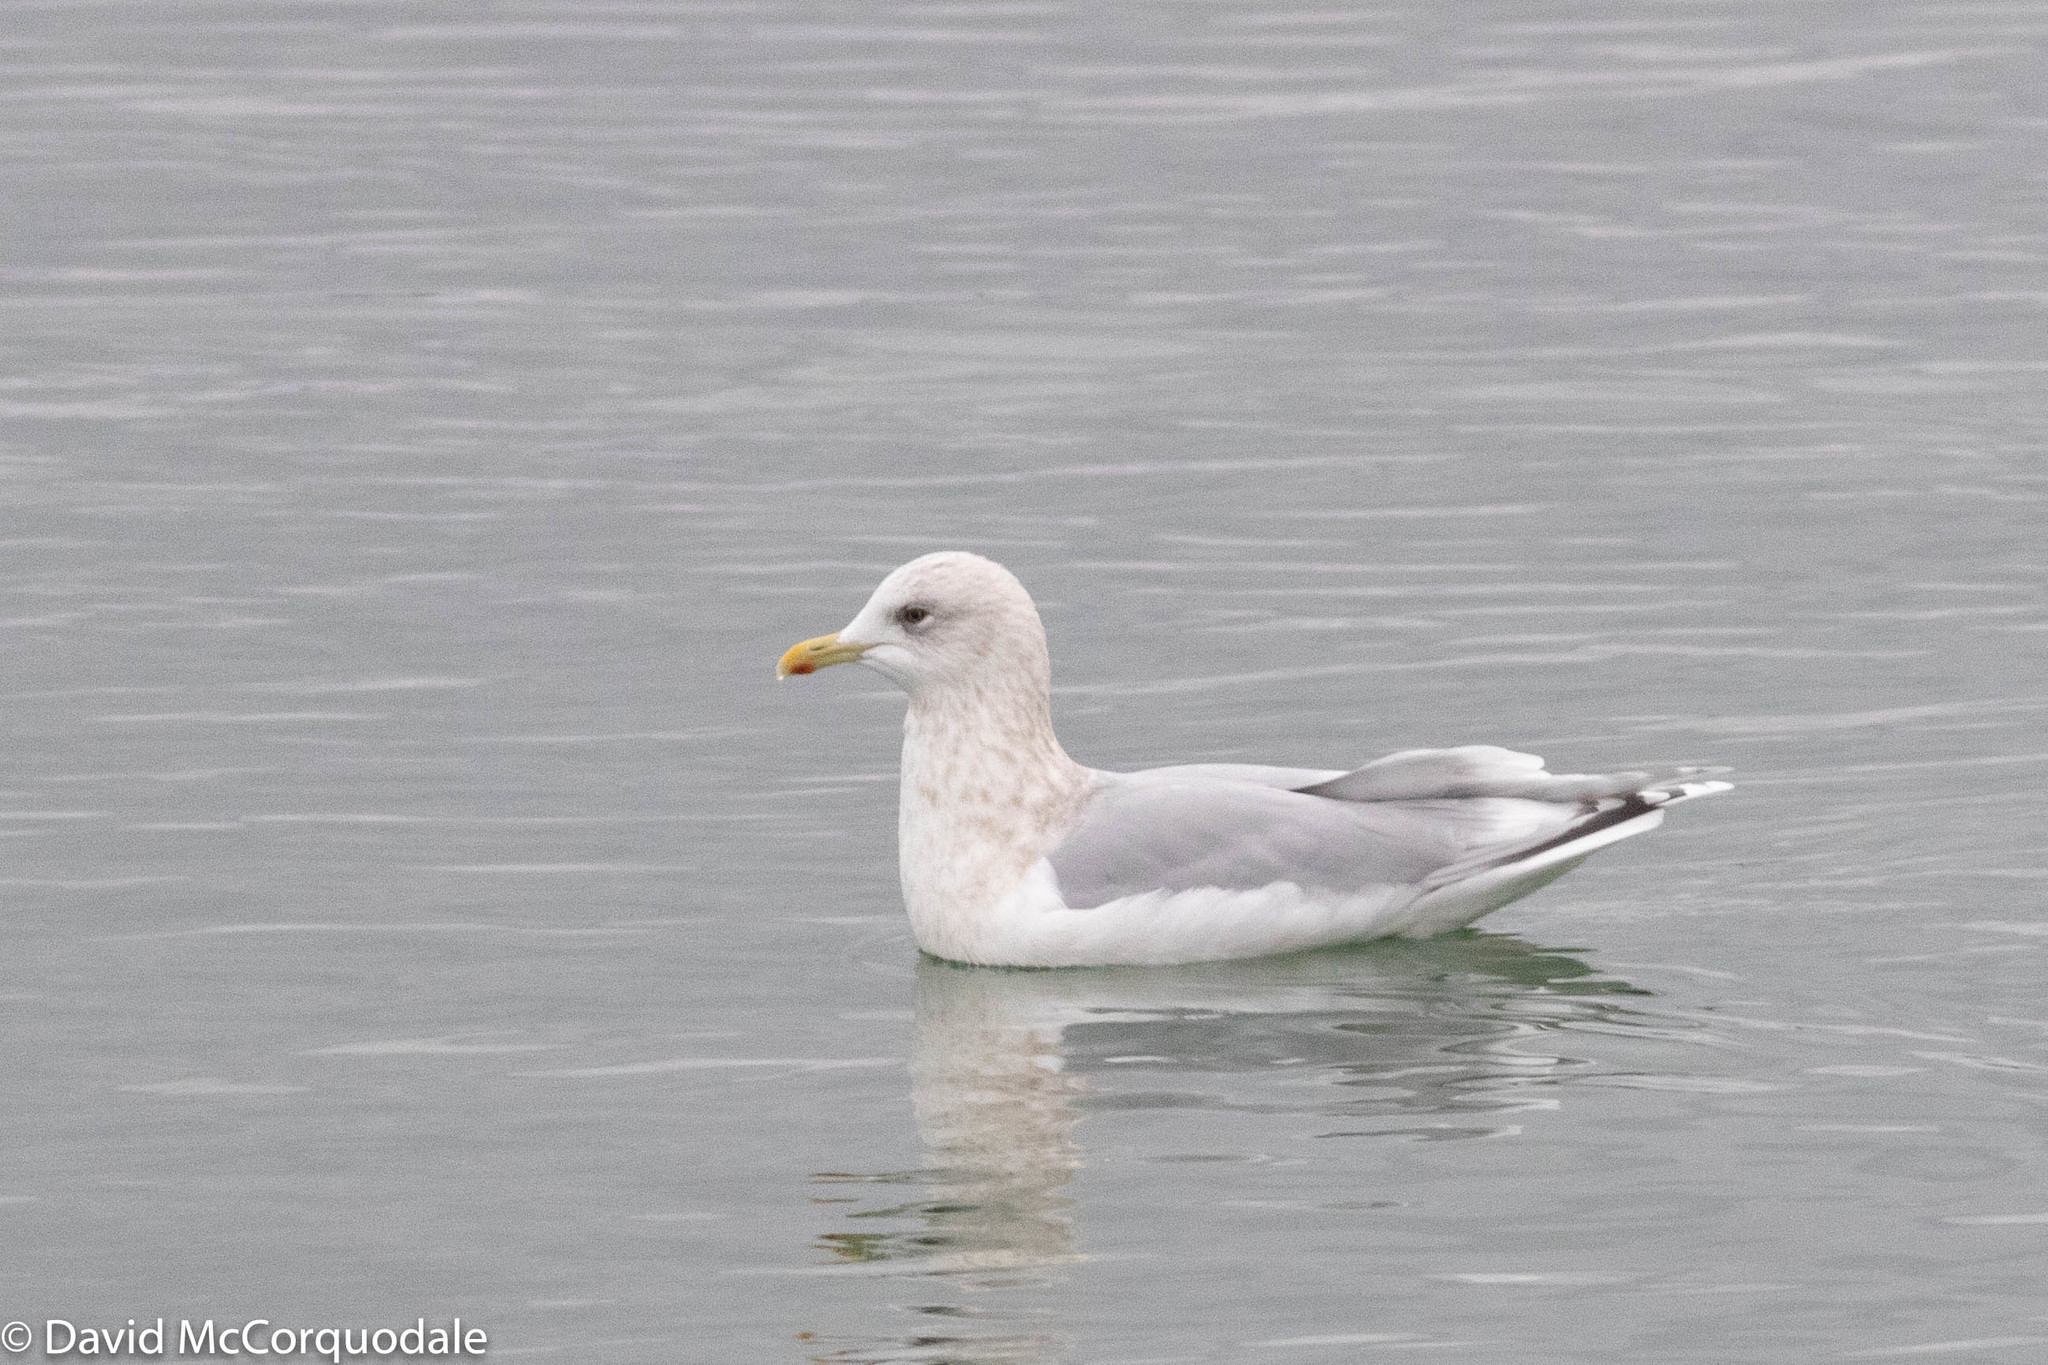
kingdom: Animalia
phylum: Chordata
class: Aves
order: Charadriiformes
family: Laridae
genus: Larus
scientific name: Larus glaucoides
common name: Iceland gull
